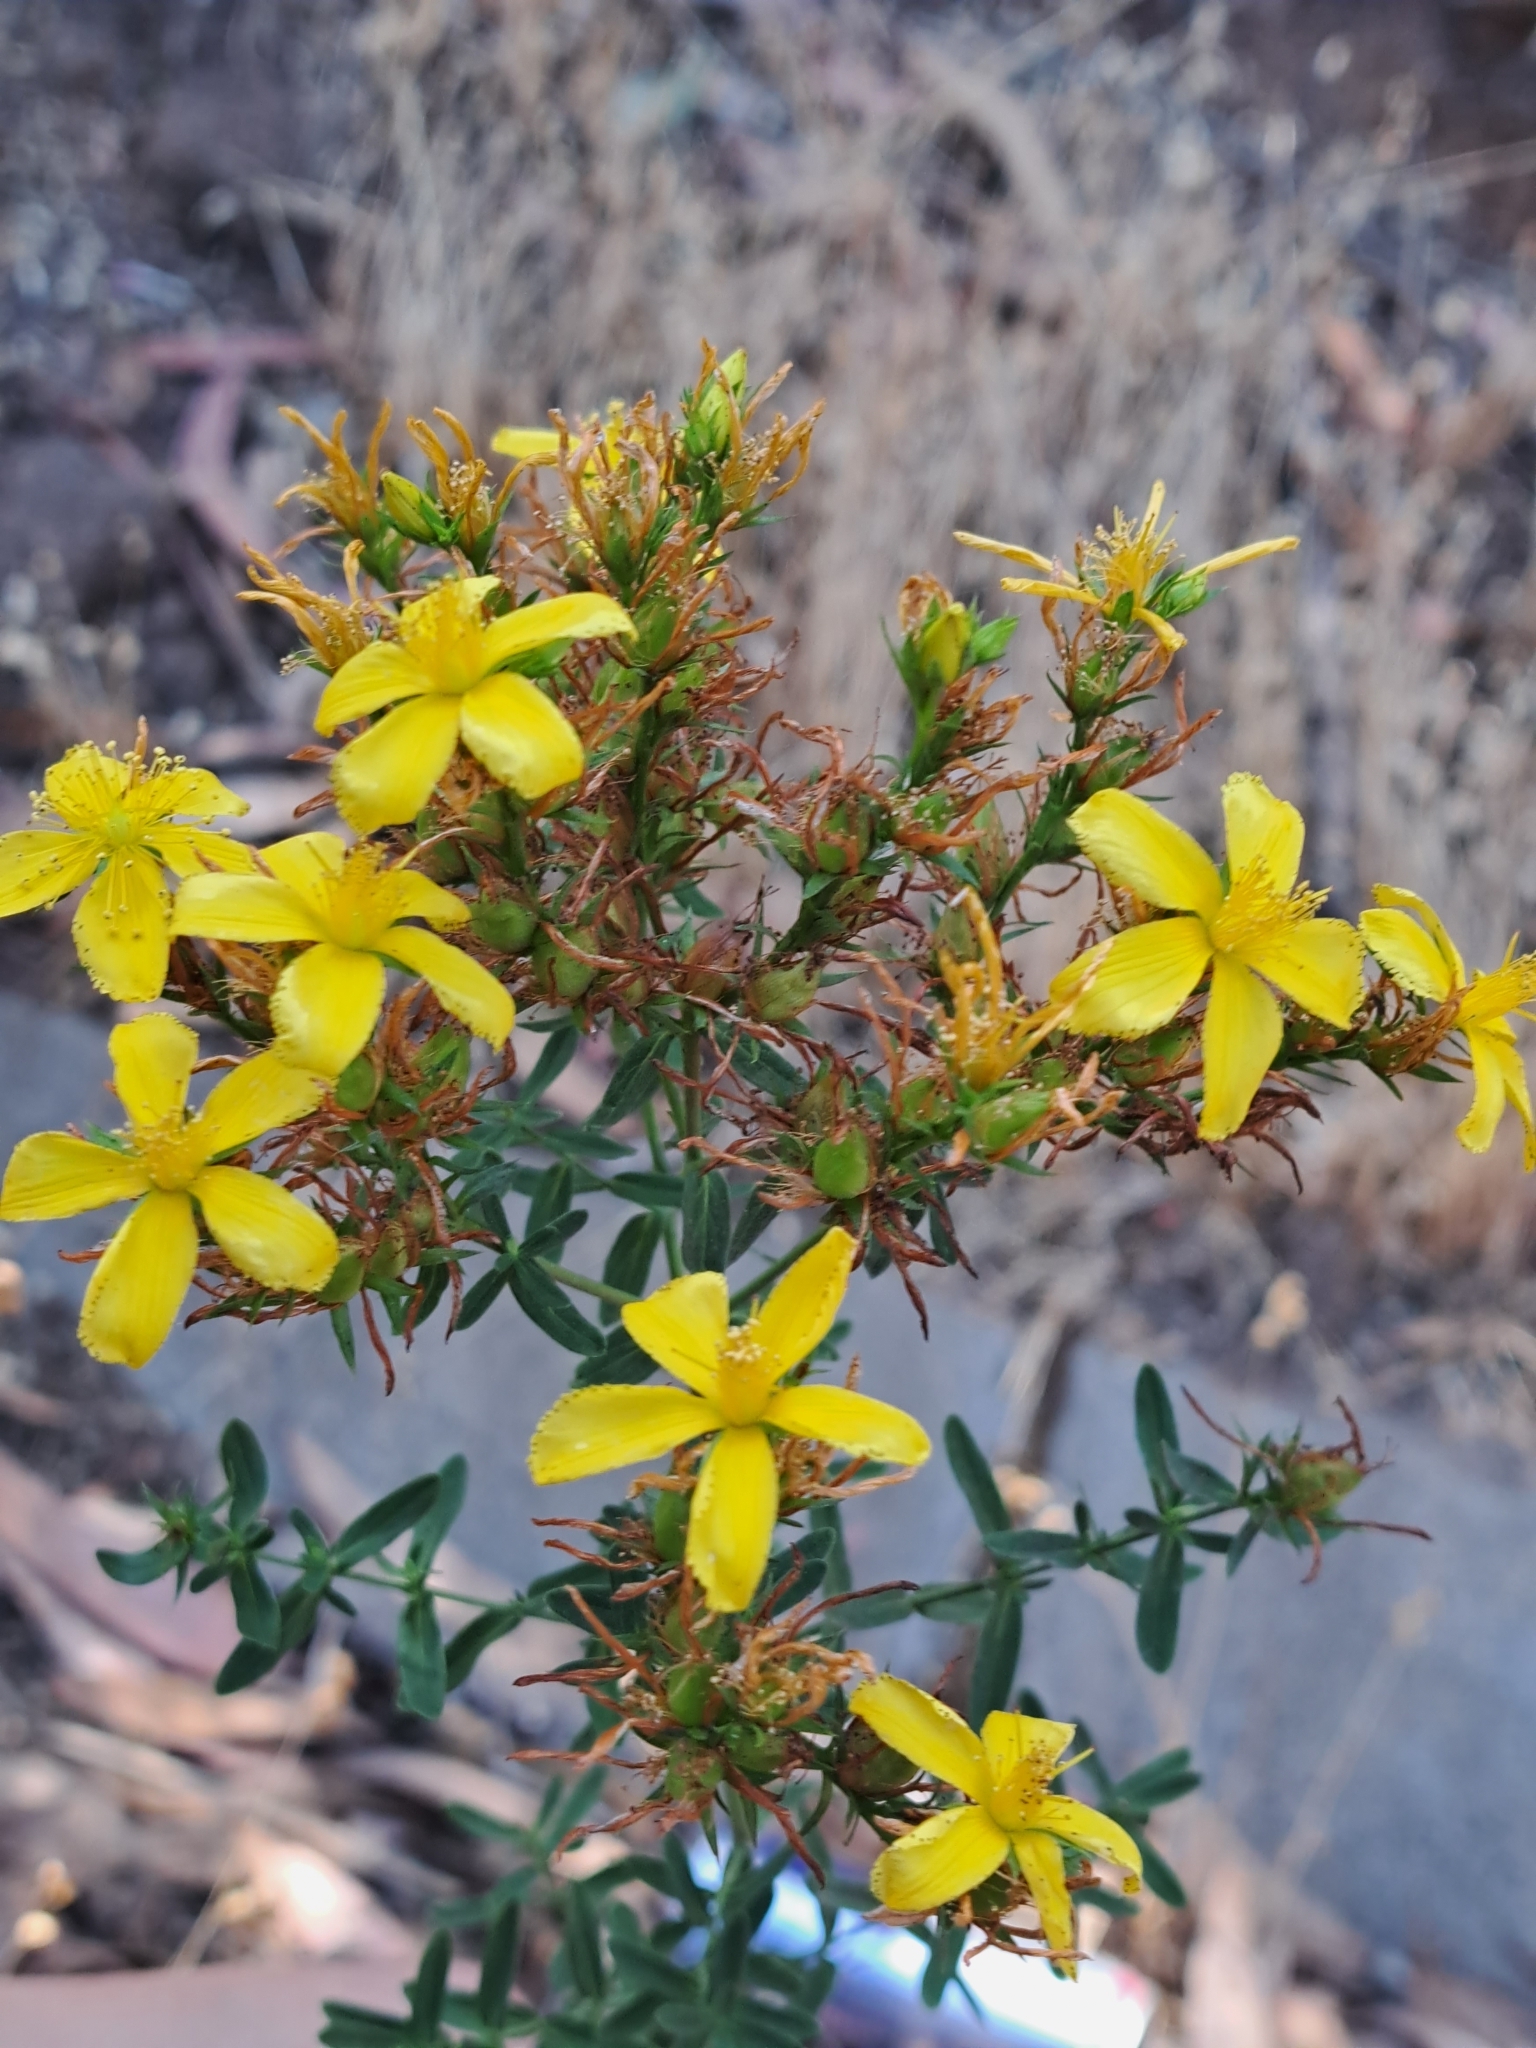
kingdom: Plantae
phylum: Tracheophyta
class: Magnoliopsida
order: Malpighiales
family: Hypericaceae
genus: Hypericum
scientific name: Hypericum perforatum
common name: Common st. johnswort
